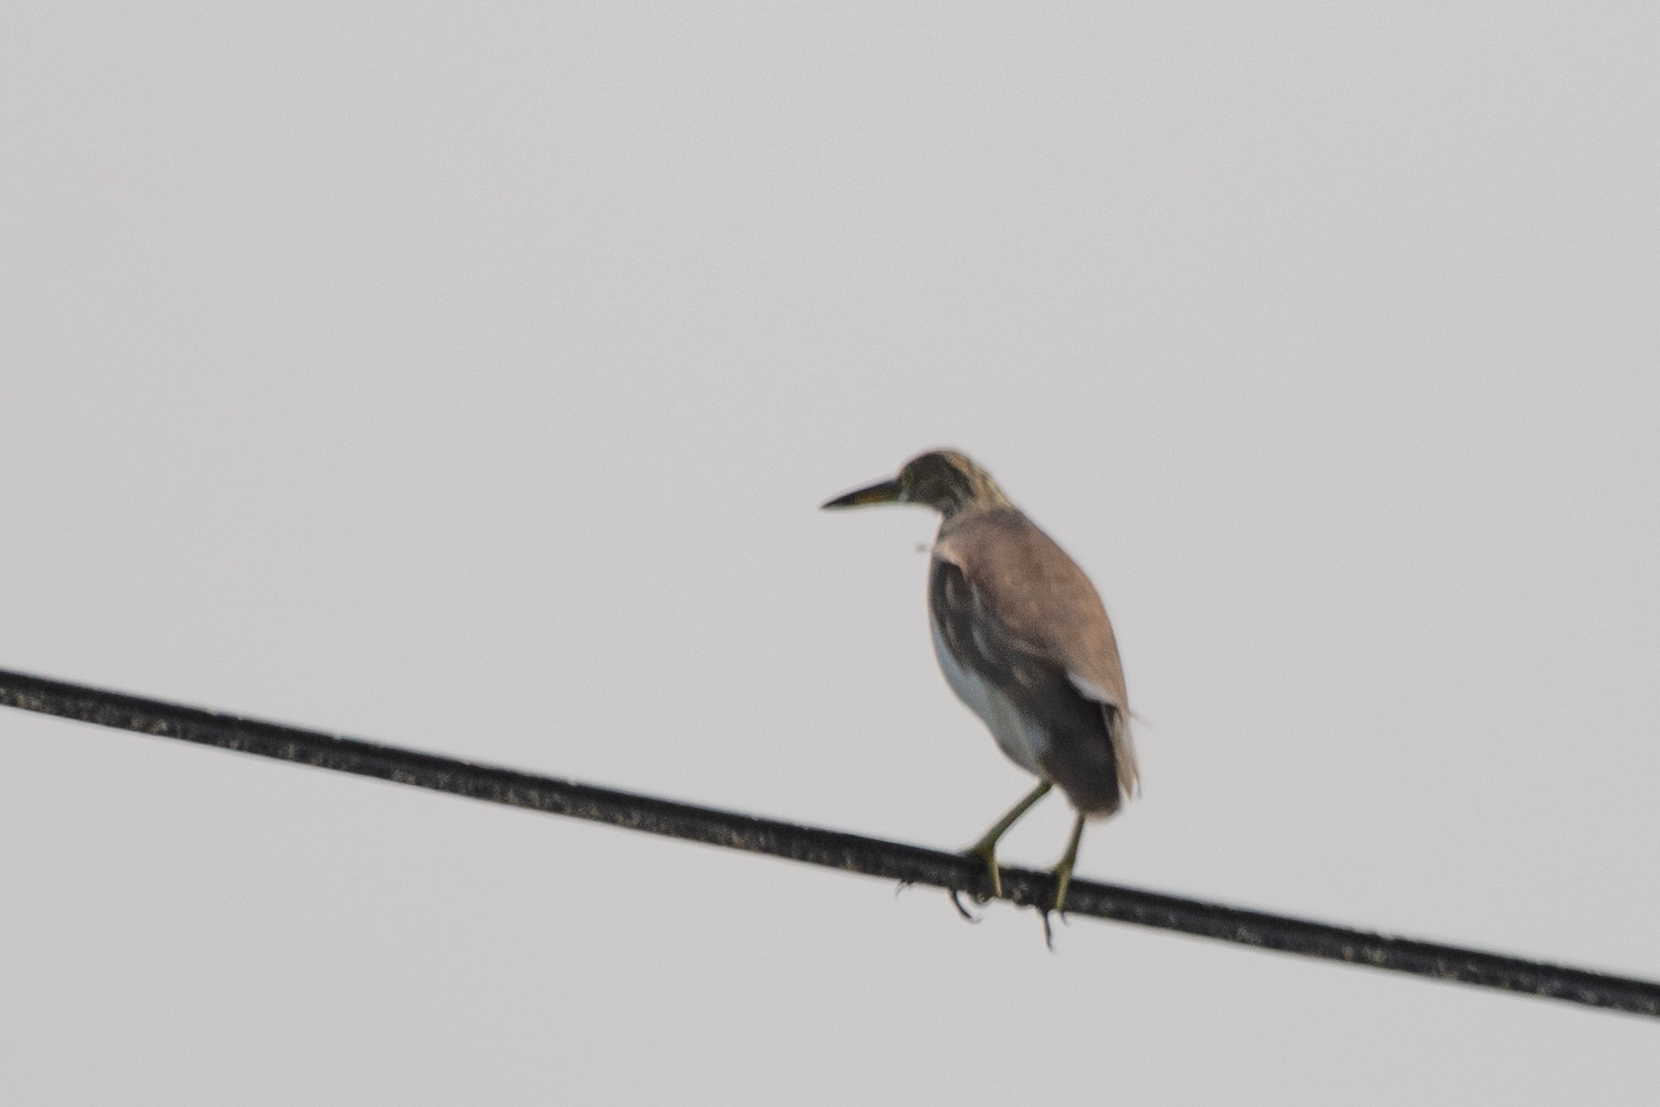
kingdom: Animalia
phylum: Chordata
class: Aves
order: Pelecaniformes
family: Ardeidae
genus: Ardeola
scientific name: Ardeola bacchus
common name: Chinese pond heron
